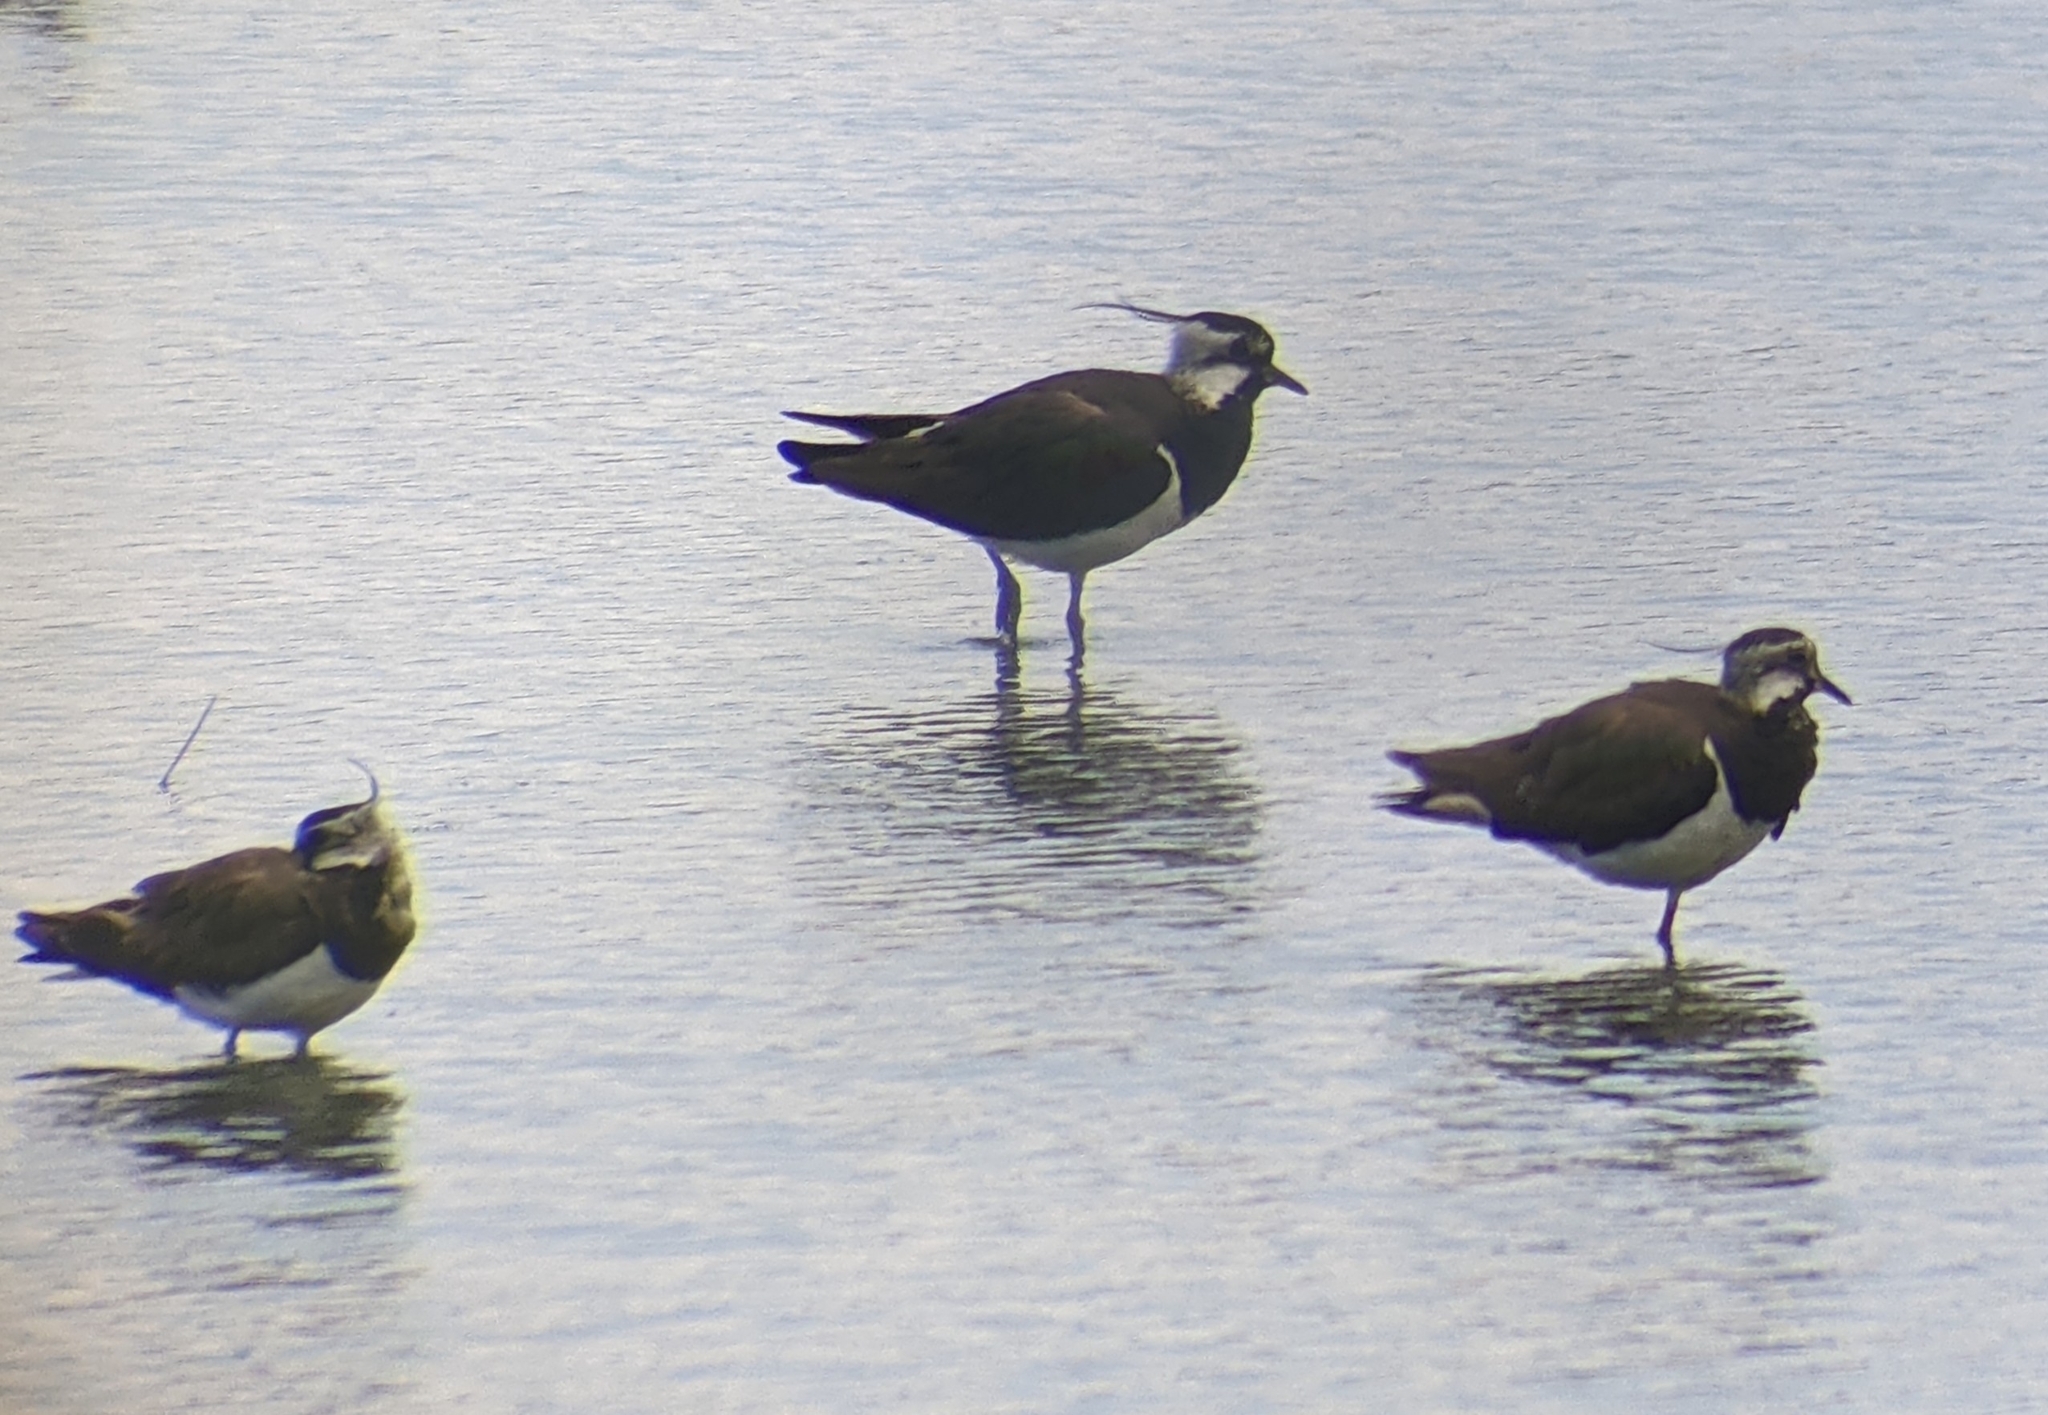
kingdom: Animalia
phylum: Chordata
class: Aves
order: Charadriiformes
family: Charadriidae
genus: Vanellus
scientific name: Vanellus vanellus
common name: Northern lapwing
